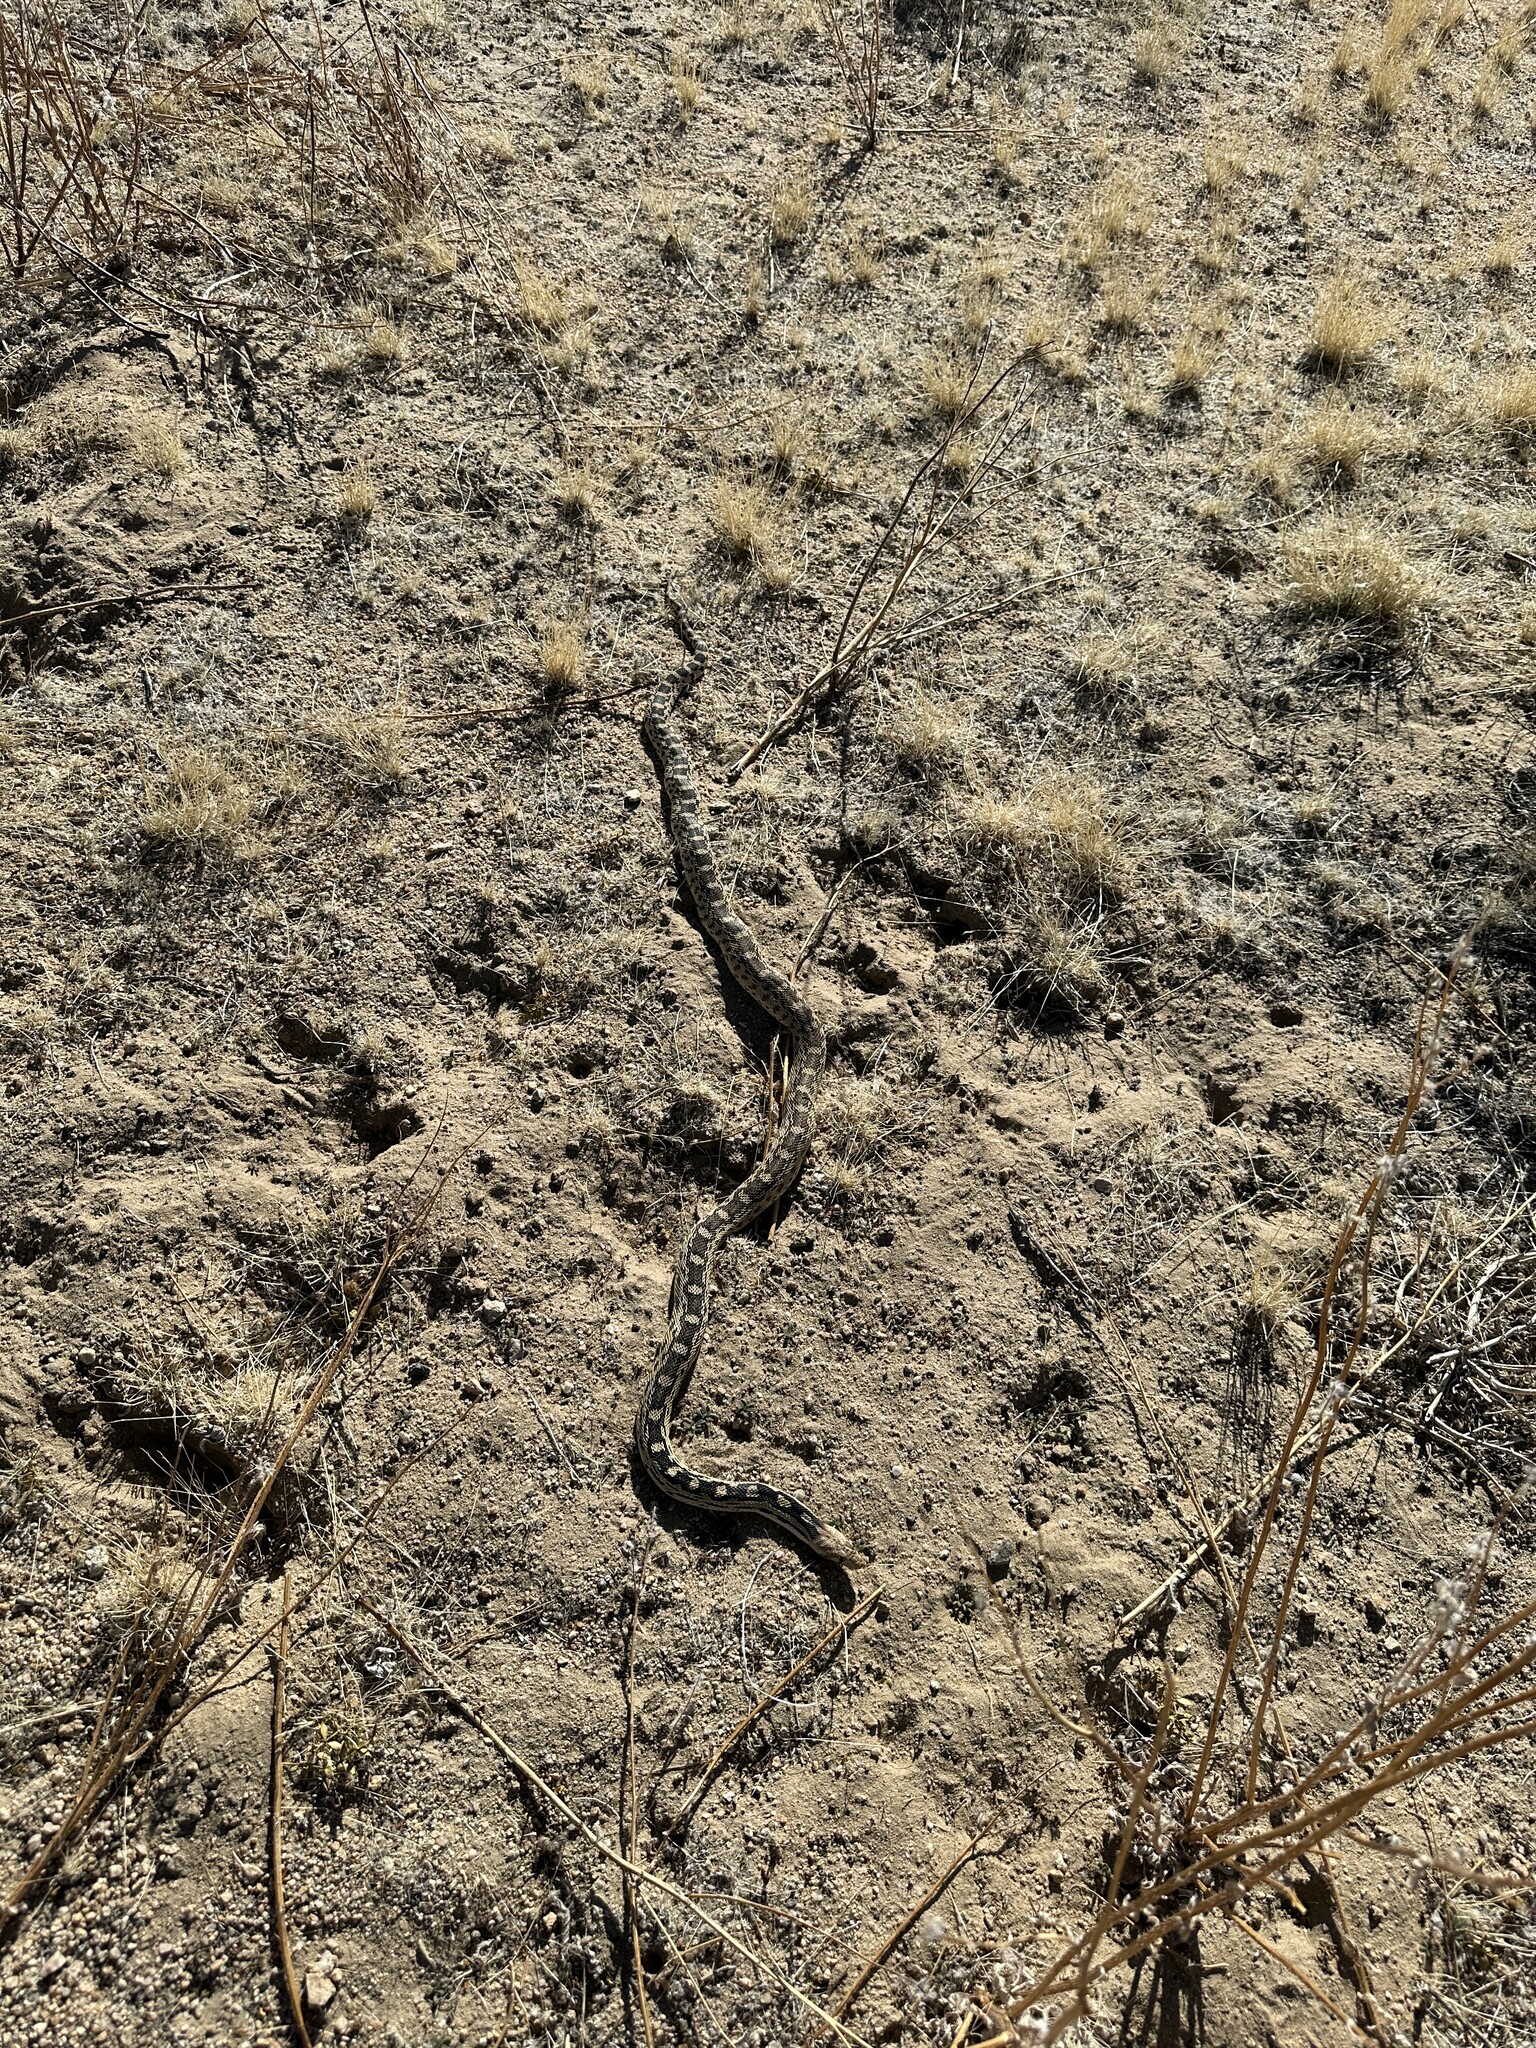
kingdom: Animalia
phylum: Chordata
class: Squamata
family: Colubridae
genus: Pituophis
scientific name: Pituophis catenifer
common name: Gopher snake
